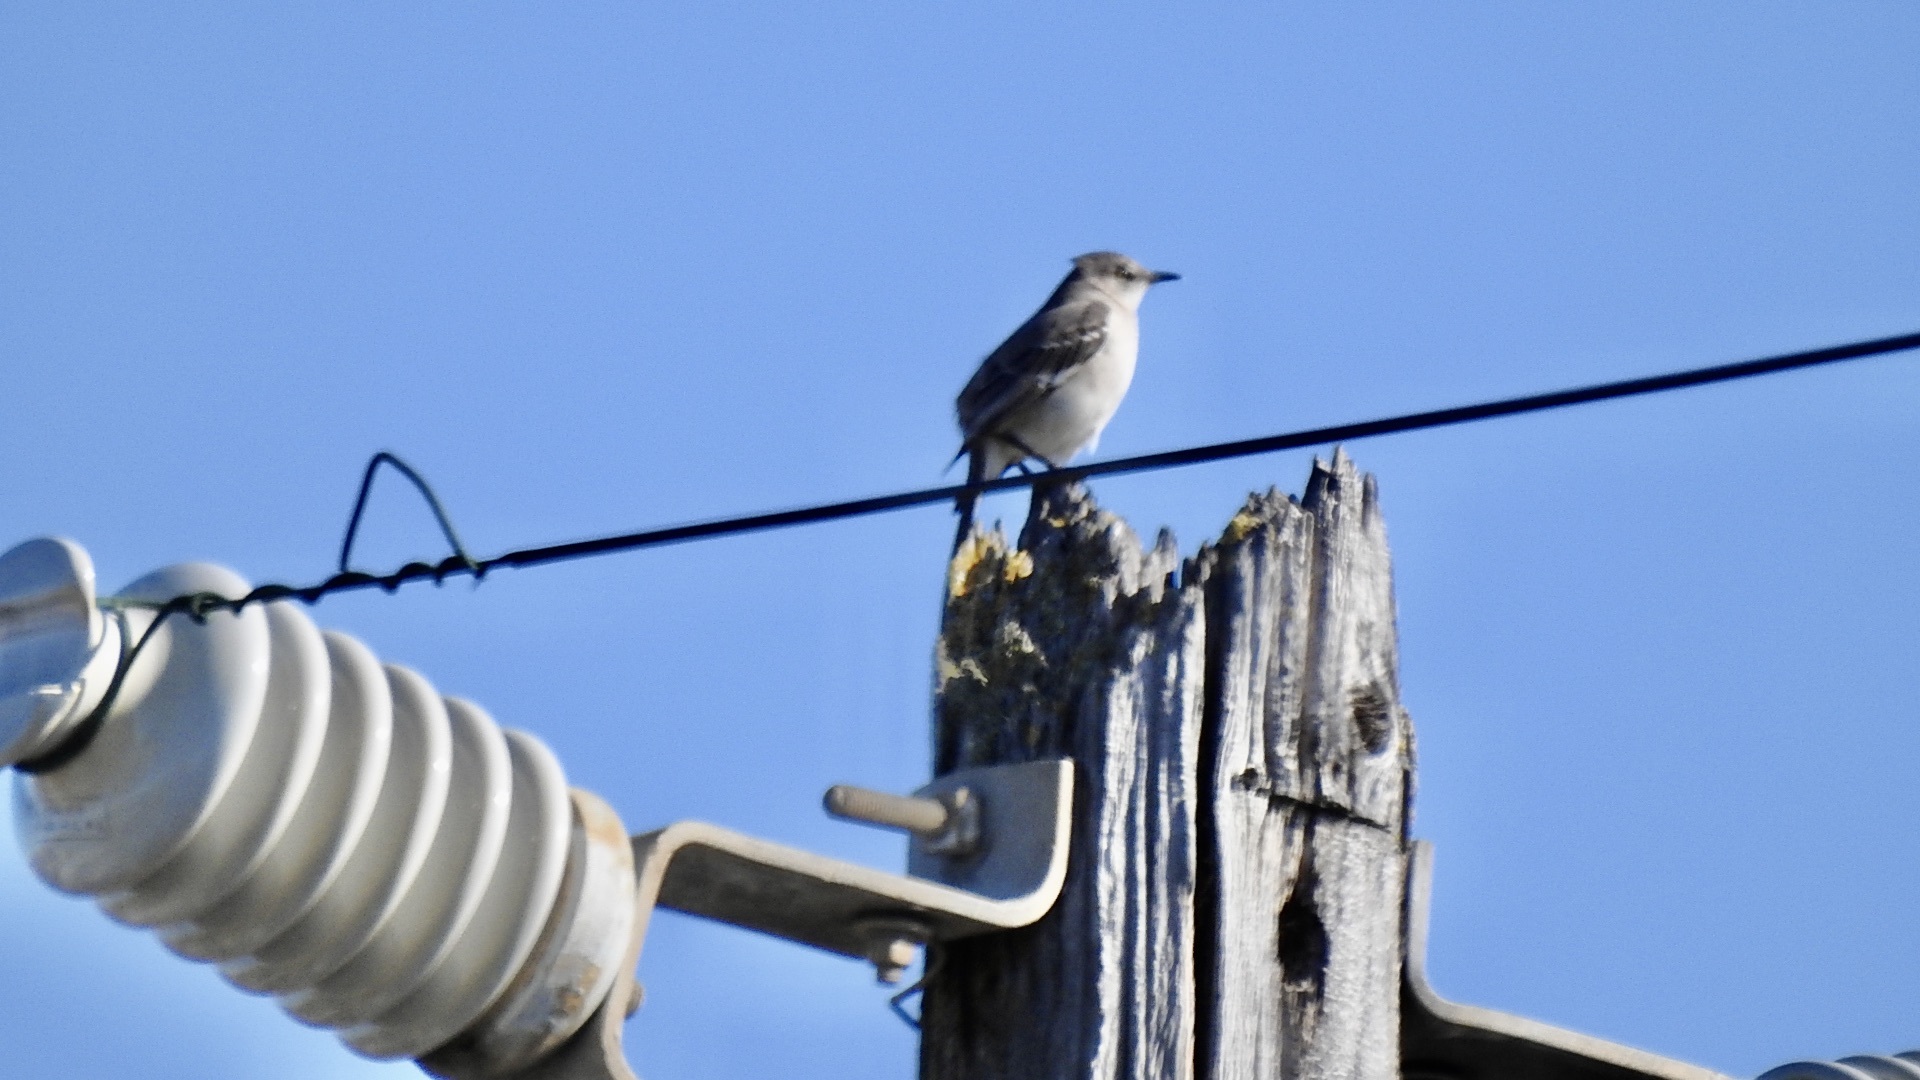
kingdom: Animalia
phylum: Chordata
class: Aves
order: Passeriformes
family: Mimidae
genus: Mimus
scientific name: Mimus polyglottos
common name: Northern mockingbird
